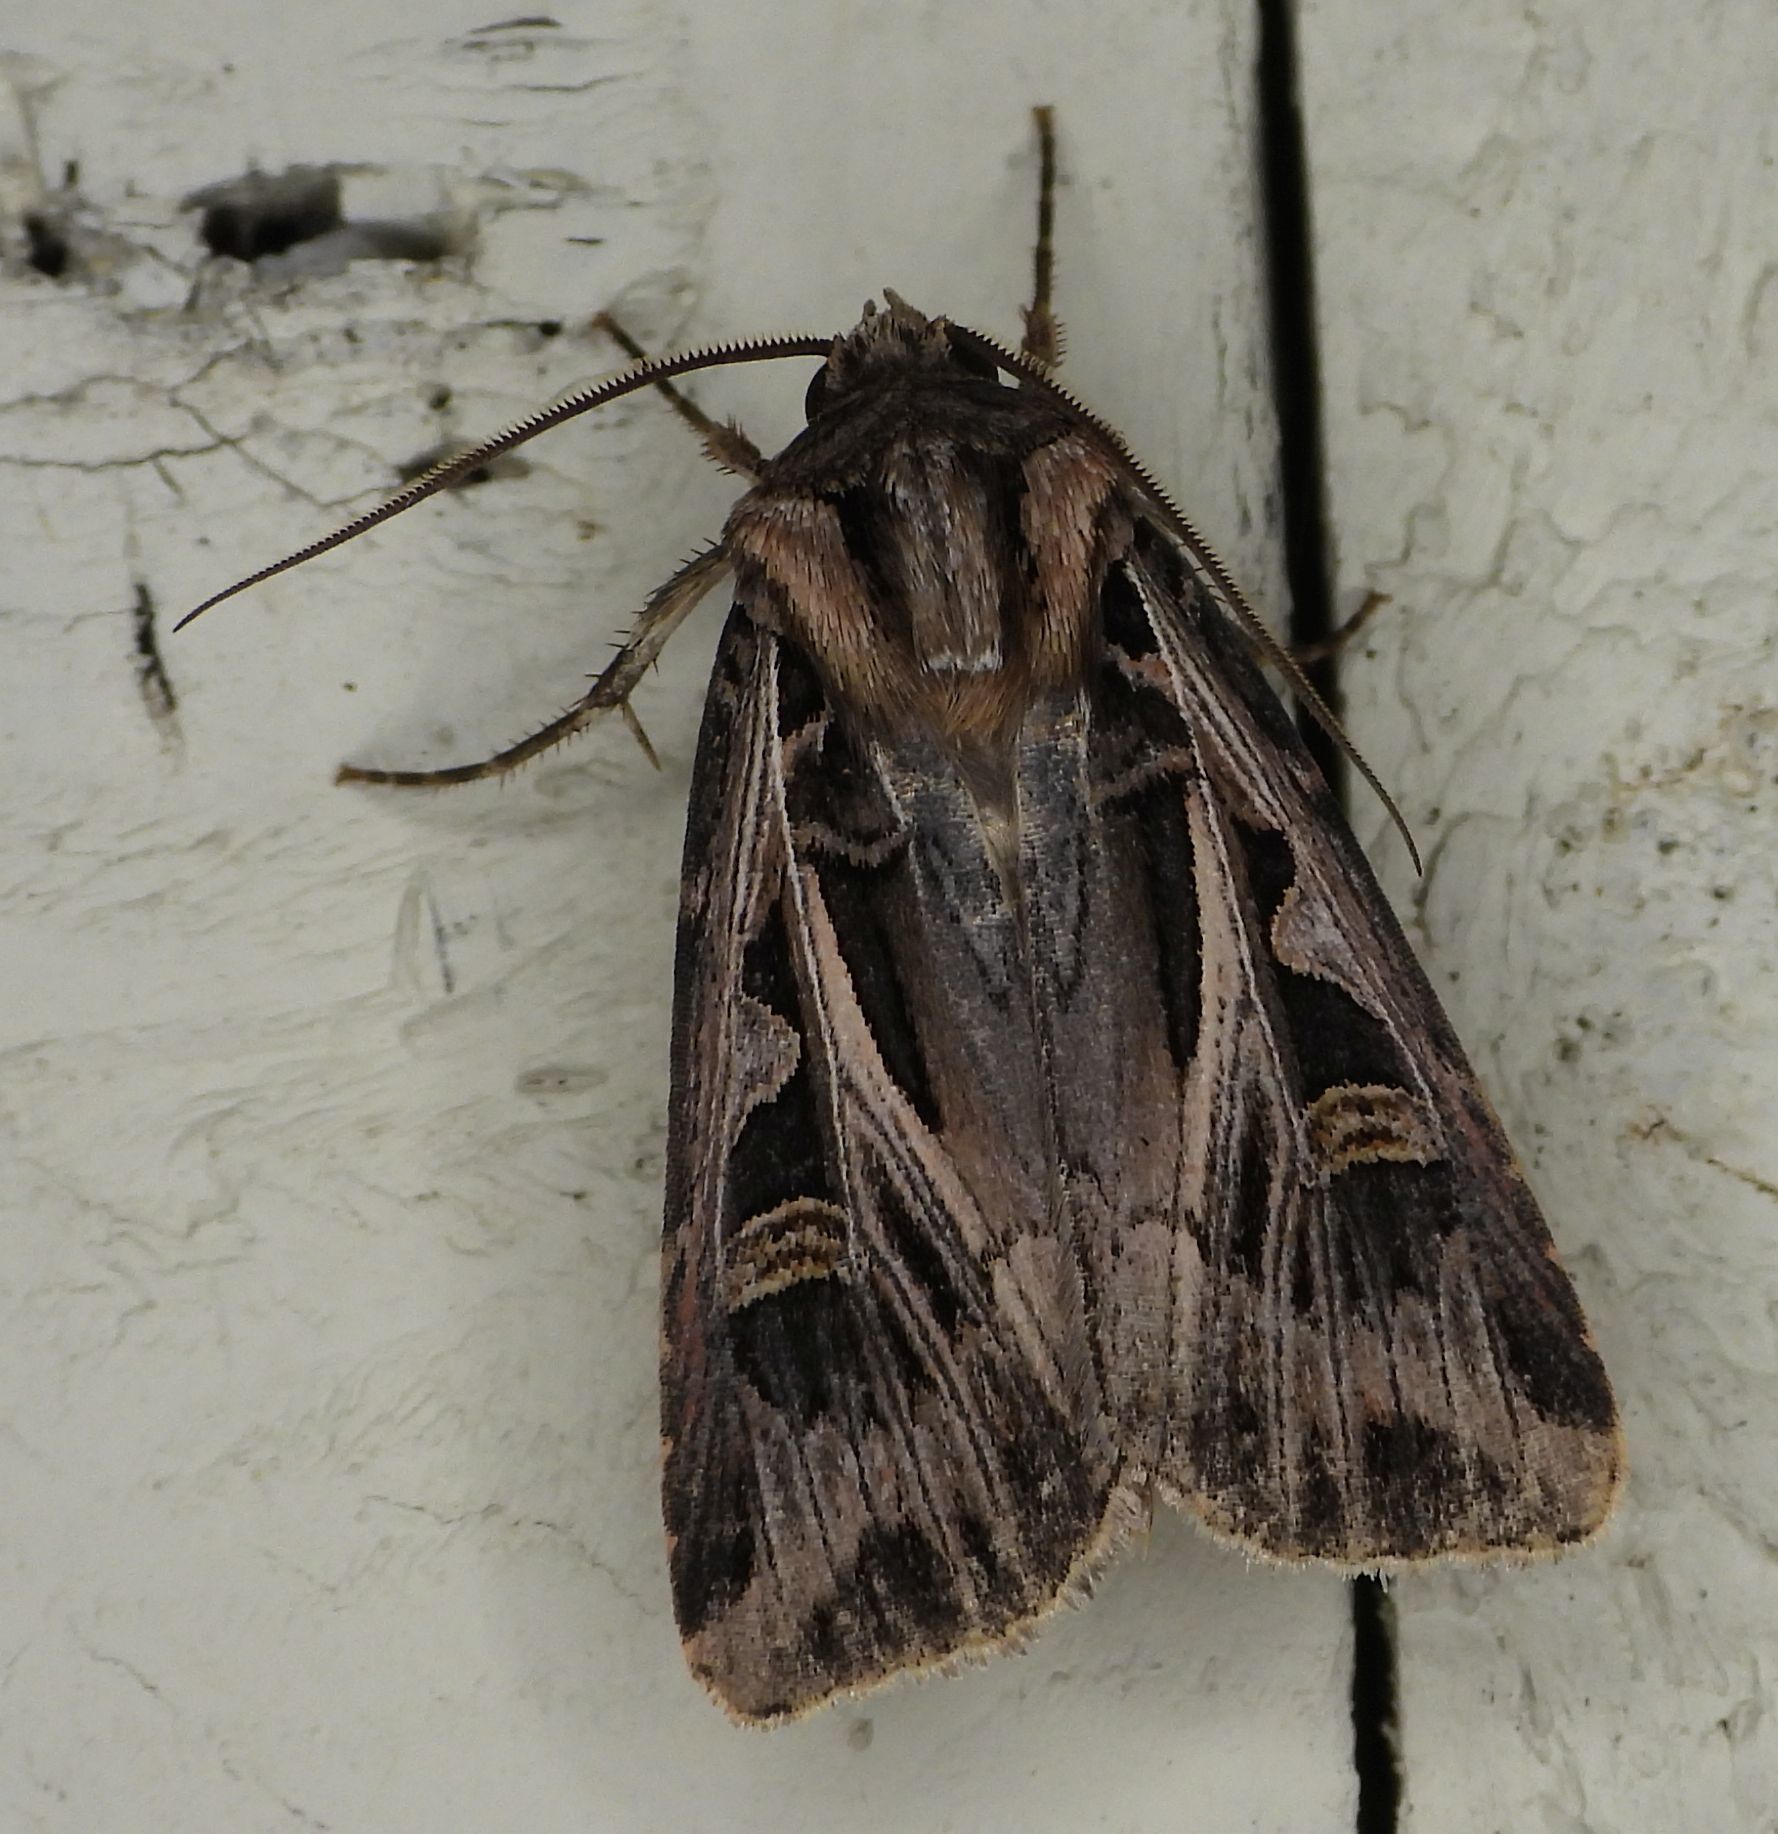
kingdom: Animalia
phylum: Arthropoda
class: Insecta
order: Lepidoptera
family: Noctuidae
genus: Feltia
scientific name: Feltia jaculifera
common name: Dingy cutworm moth
